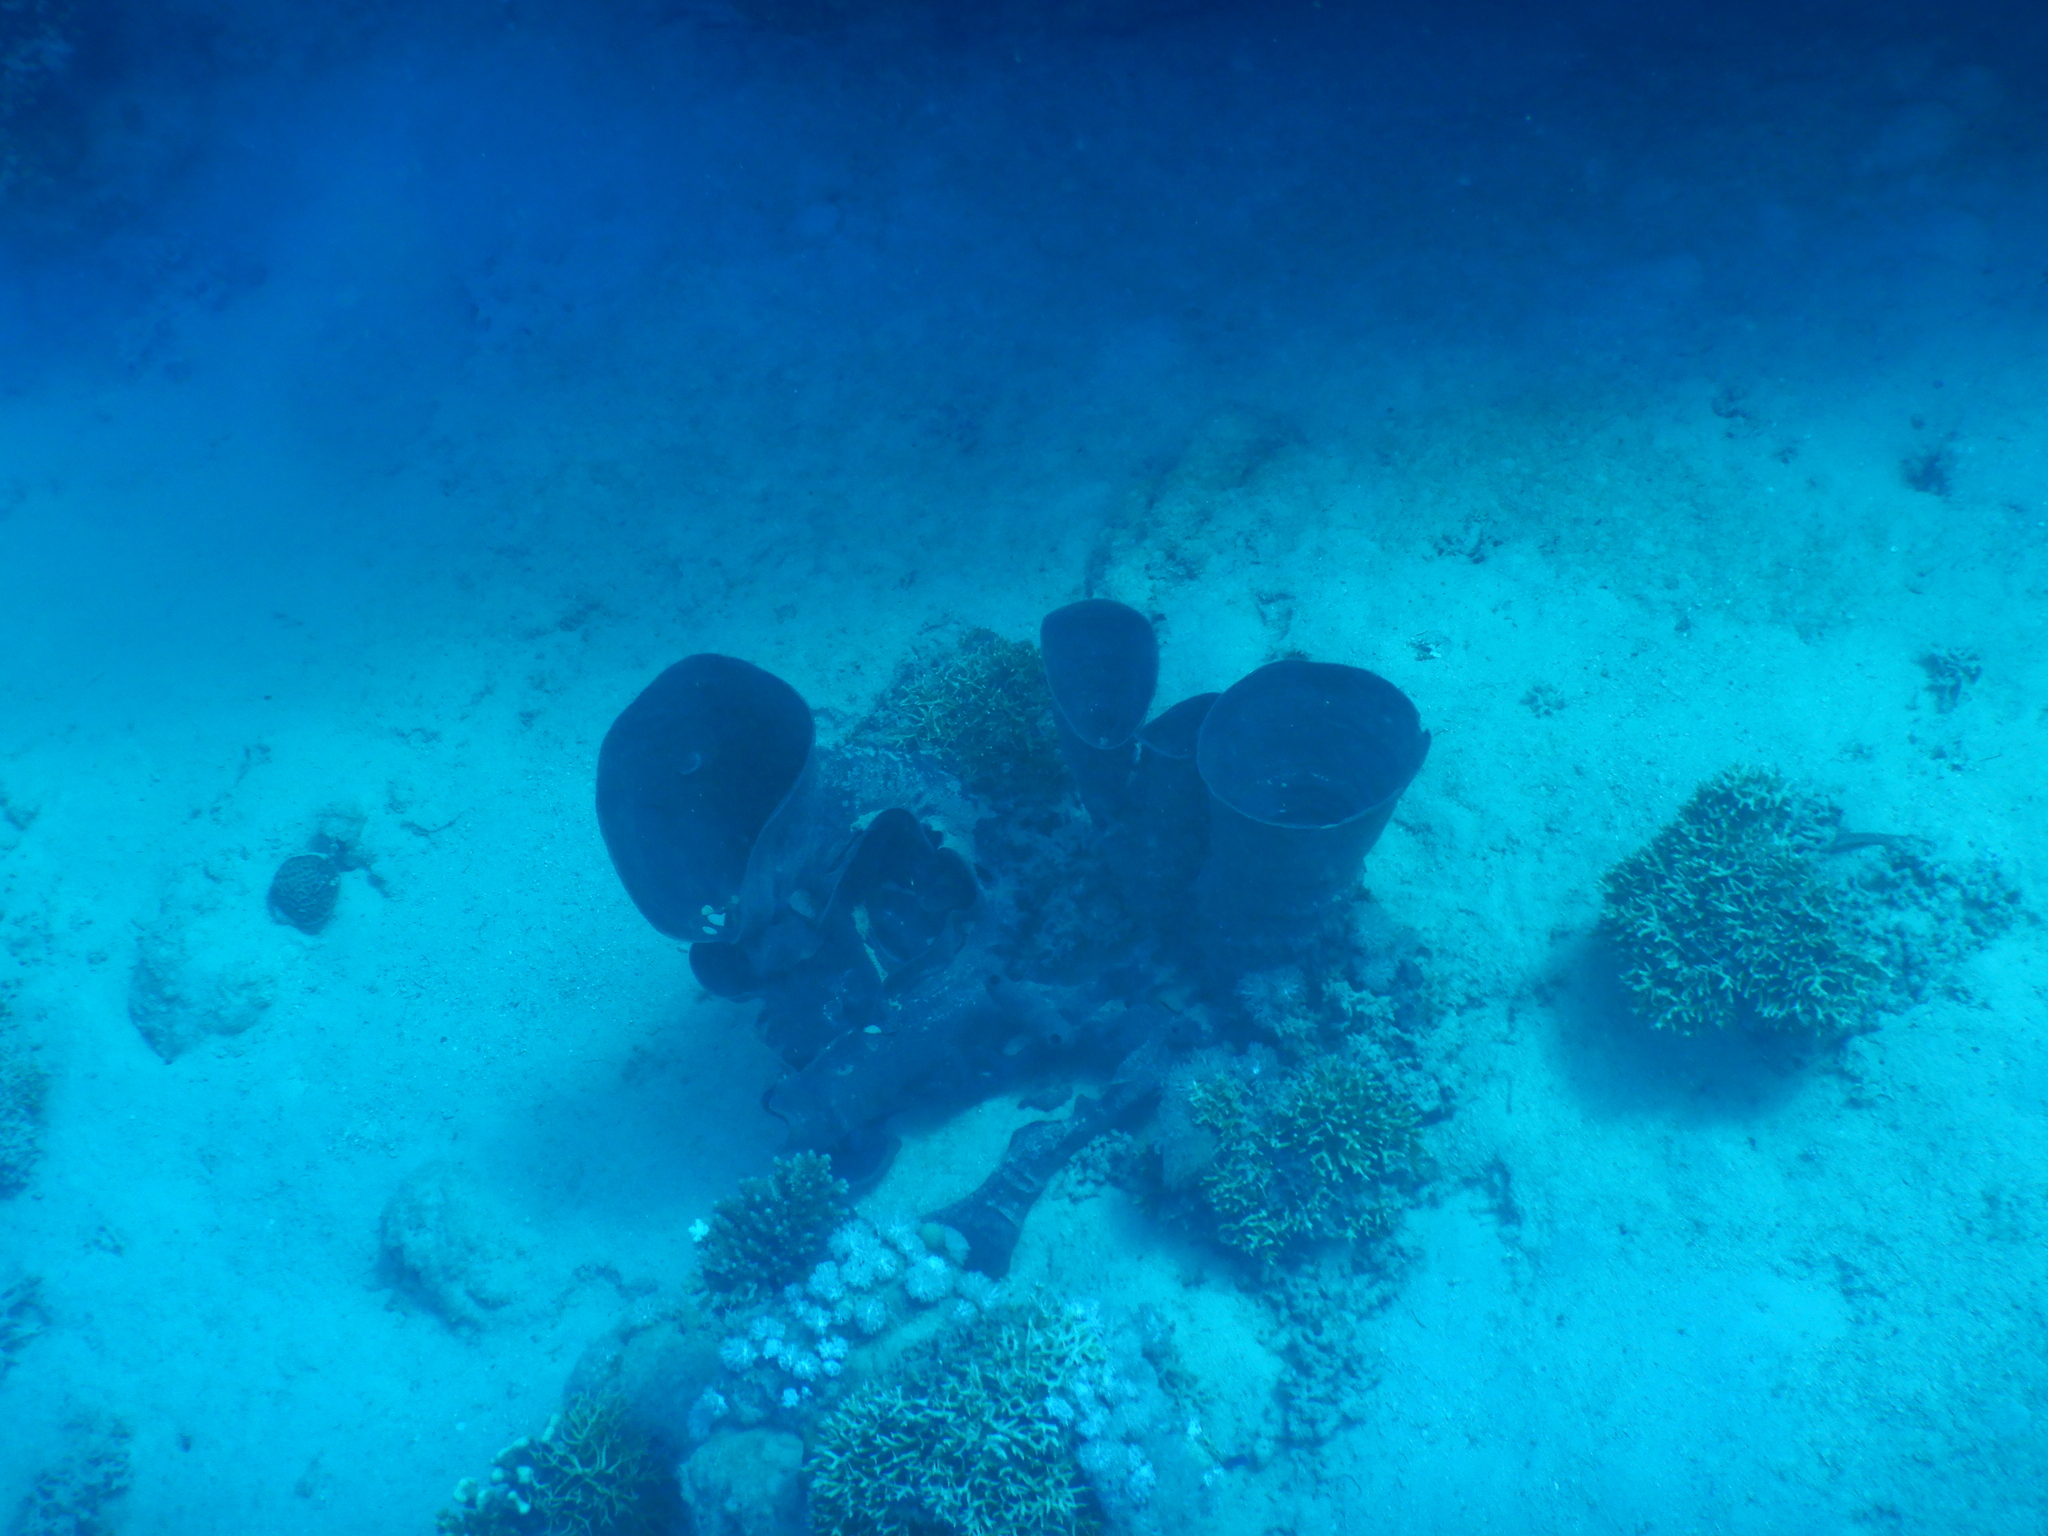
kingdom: Animalia
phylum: Porifera
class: Demospongiae
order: Haplosclerida
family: Callyspongiidae
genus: Callyspongia
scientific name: Callyspongia crassa
